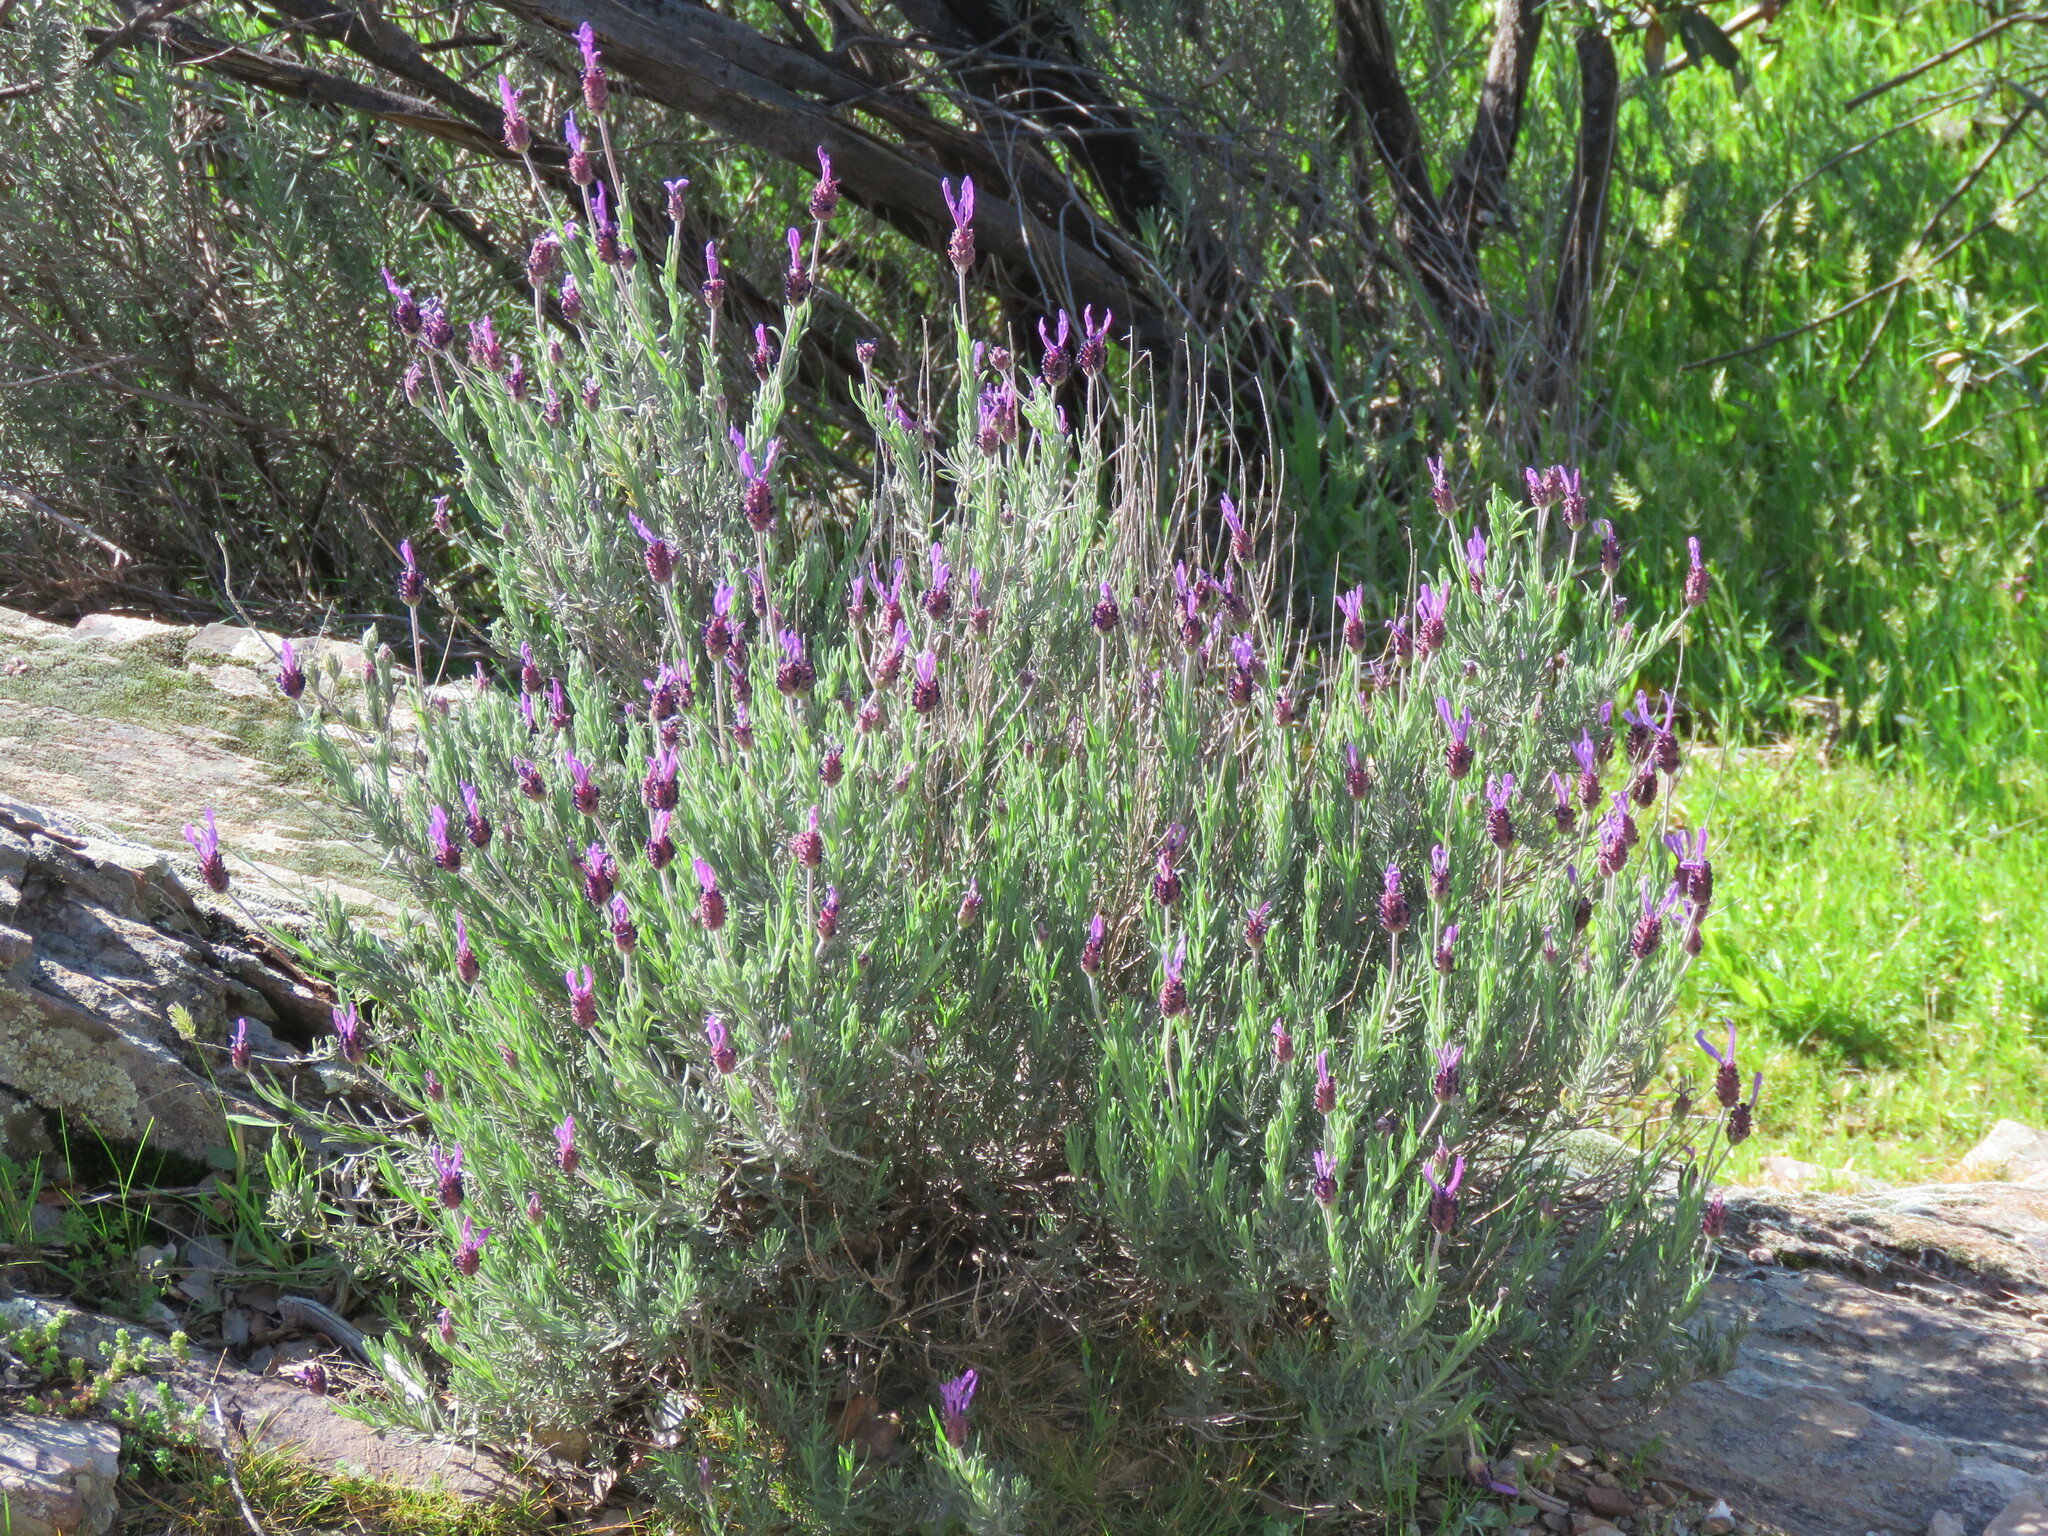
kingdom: Plantae
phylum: Tracheophyta
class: Magnoliopsida
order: Lamiales
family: Lamiaceae
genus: Lavandula
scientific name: Lavandula pedunculata
